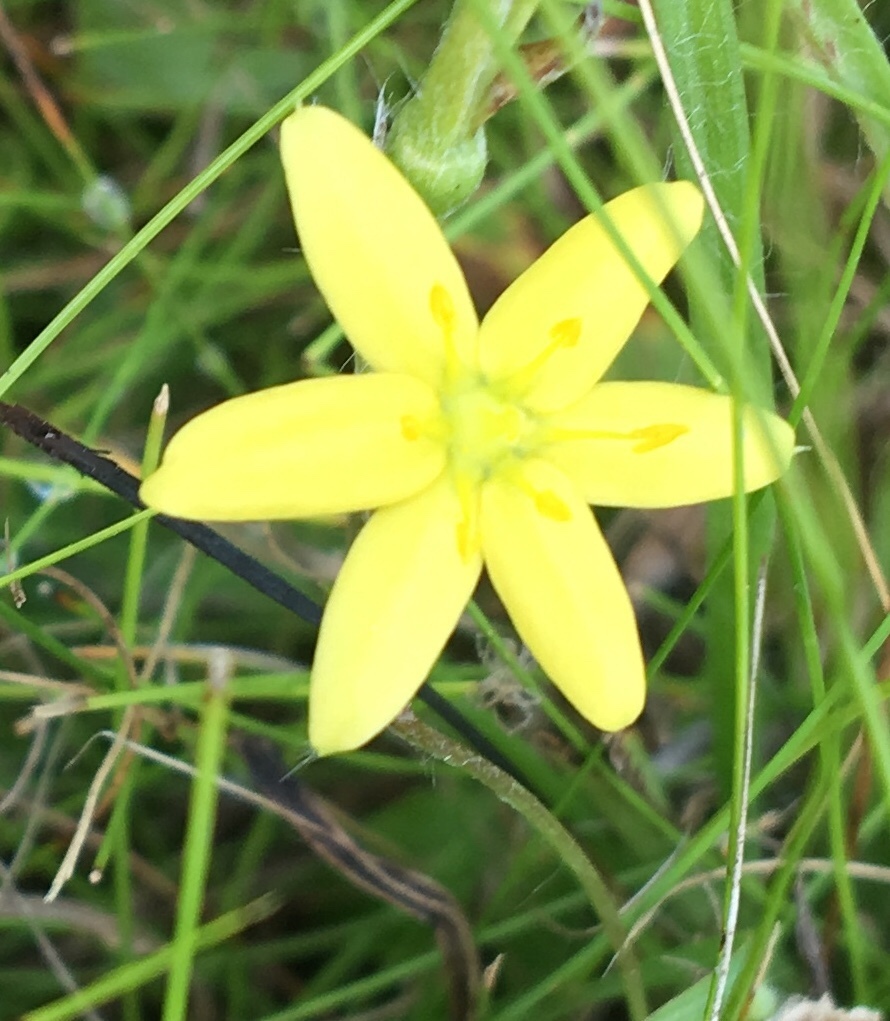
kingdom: Plantae
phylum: Tracheophyta
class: Liliopsida
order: Asparagales
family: Hypoxidaceae
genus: Hypoxis
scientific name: Hypoxis hirsuta
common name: Common goldstar
